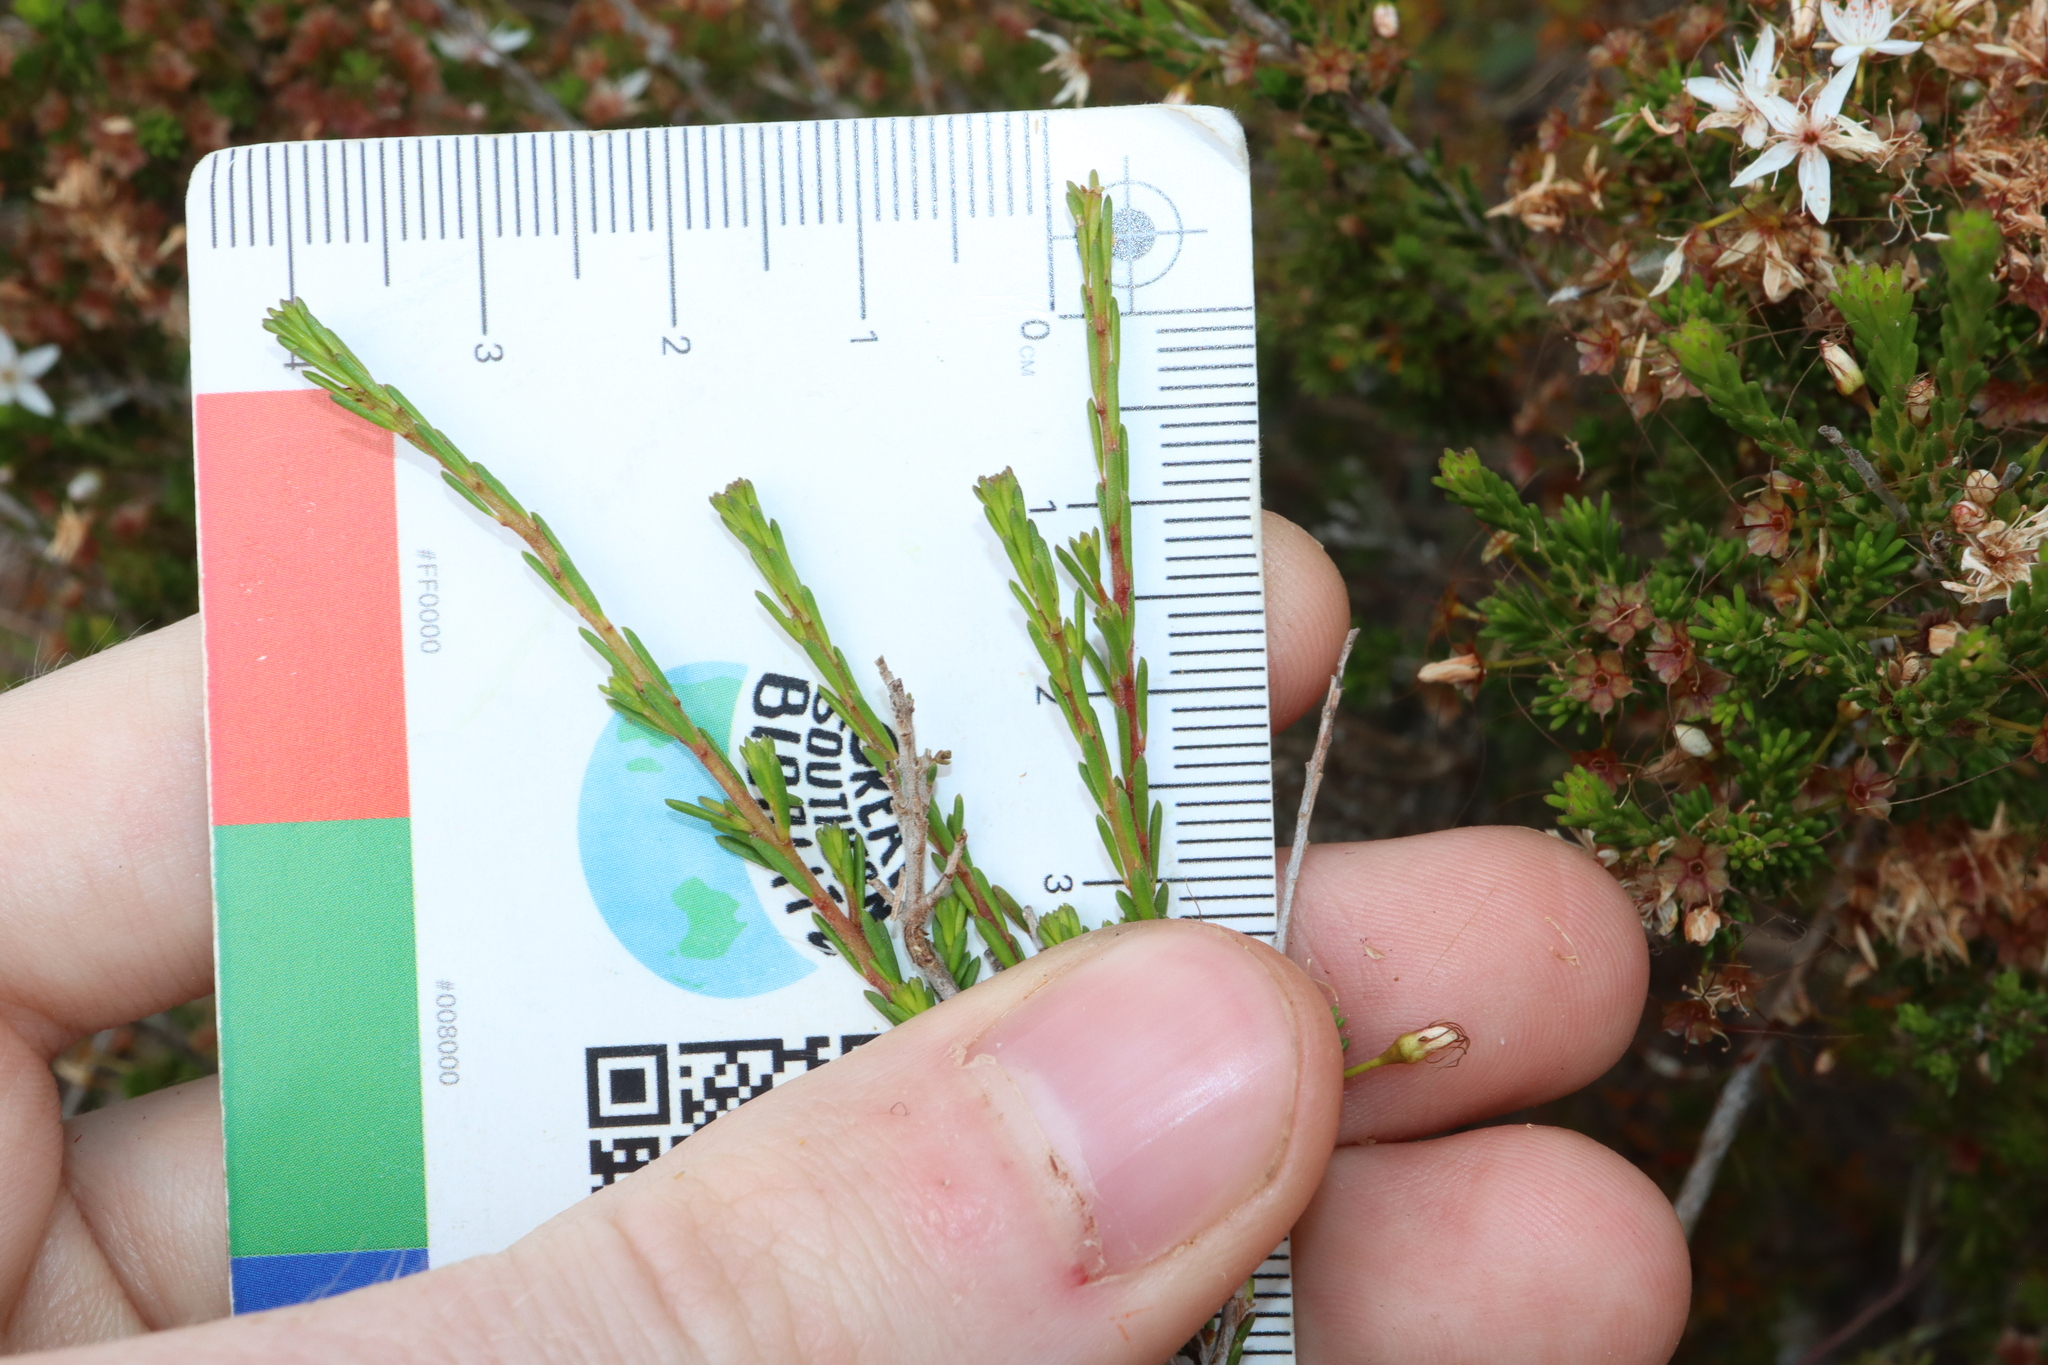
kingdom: Plantae
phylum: Tracheophyta
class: Magnoliopsida
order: Myrtales
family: Myrtaceae
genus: Calytrix
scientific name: Calytrix tetragona
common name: Common fringe myrtle
